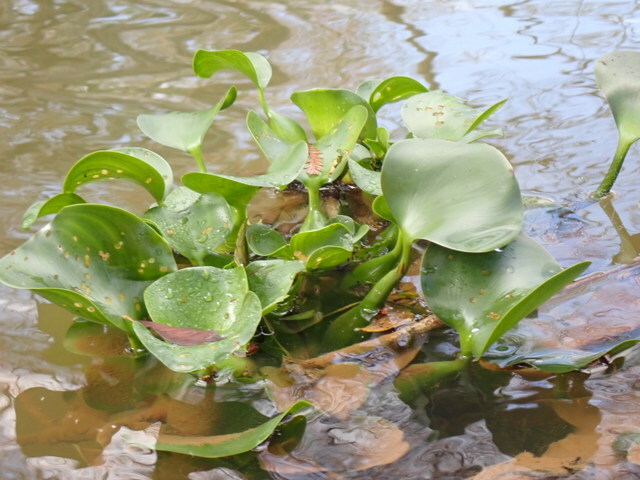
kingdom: Plantae
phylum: Tracheophyta
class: Liliopsida
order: Commelinales
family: Pontederiaceae
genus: Pontederia
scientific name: Pontederia crassipes
